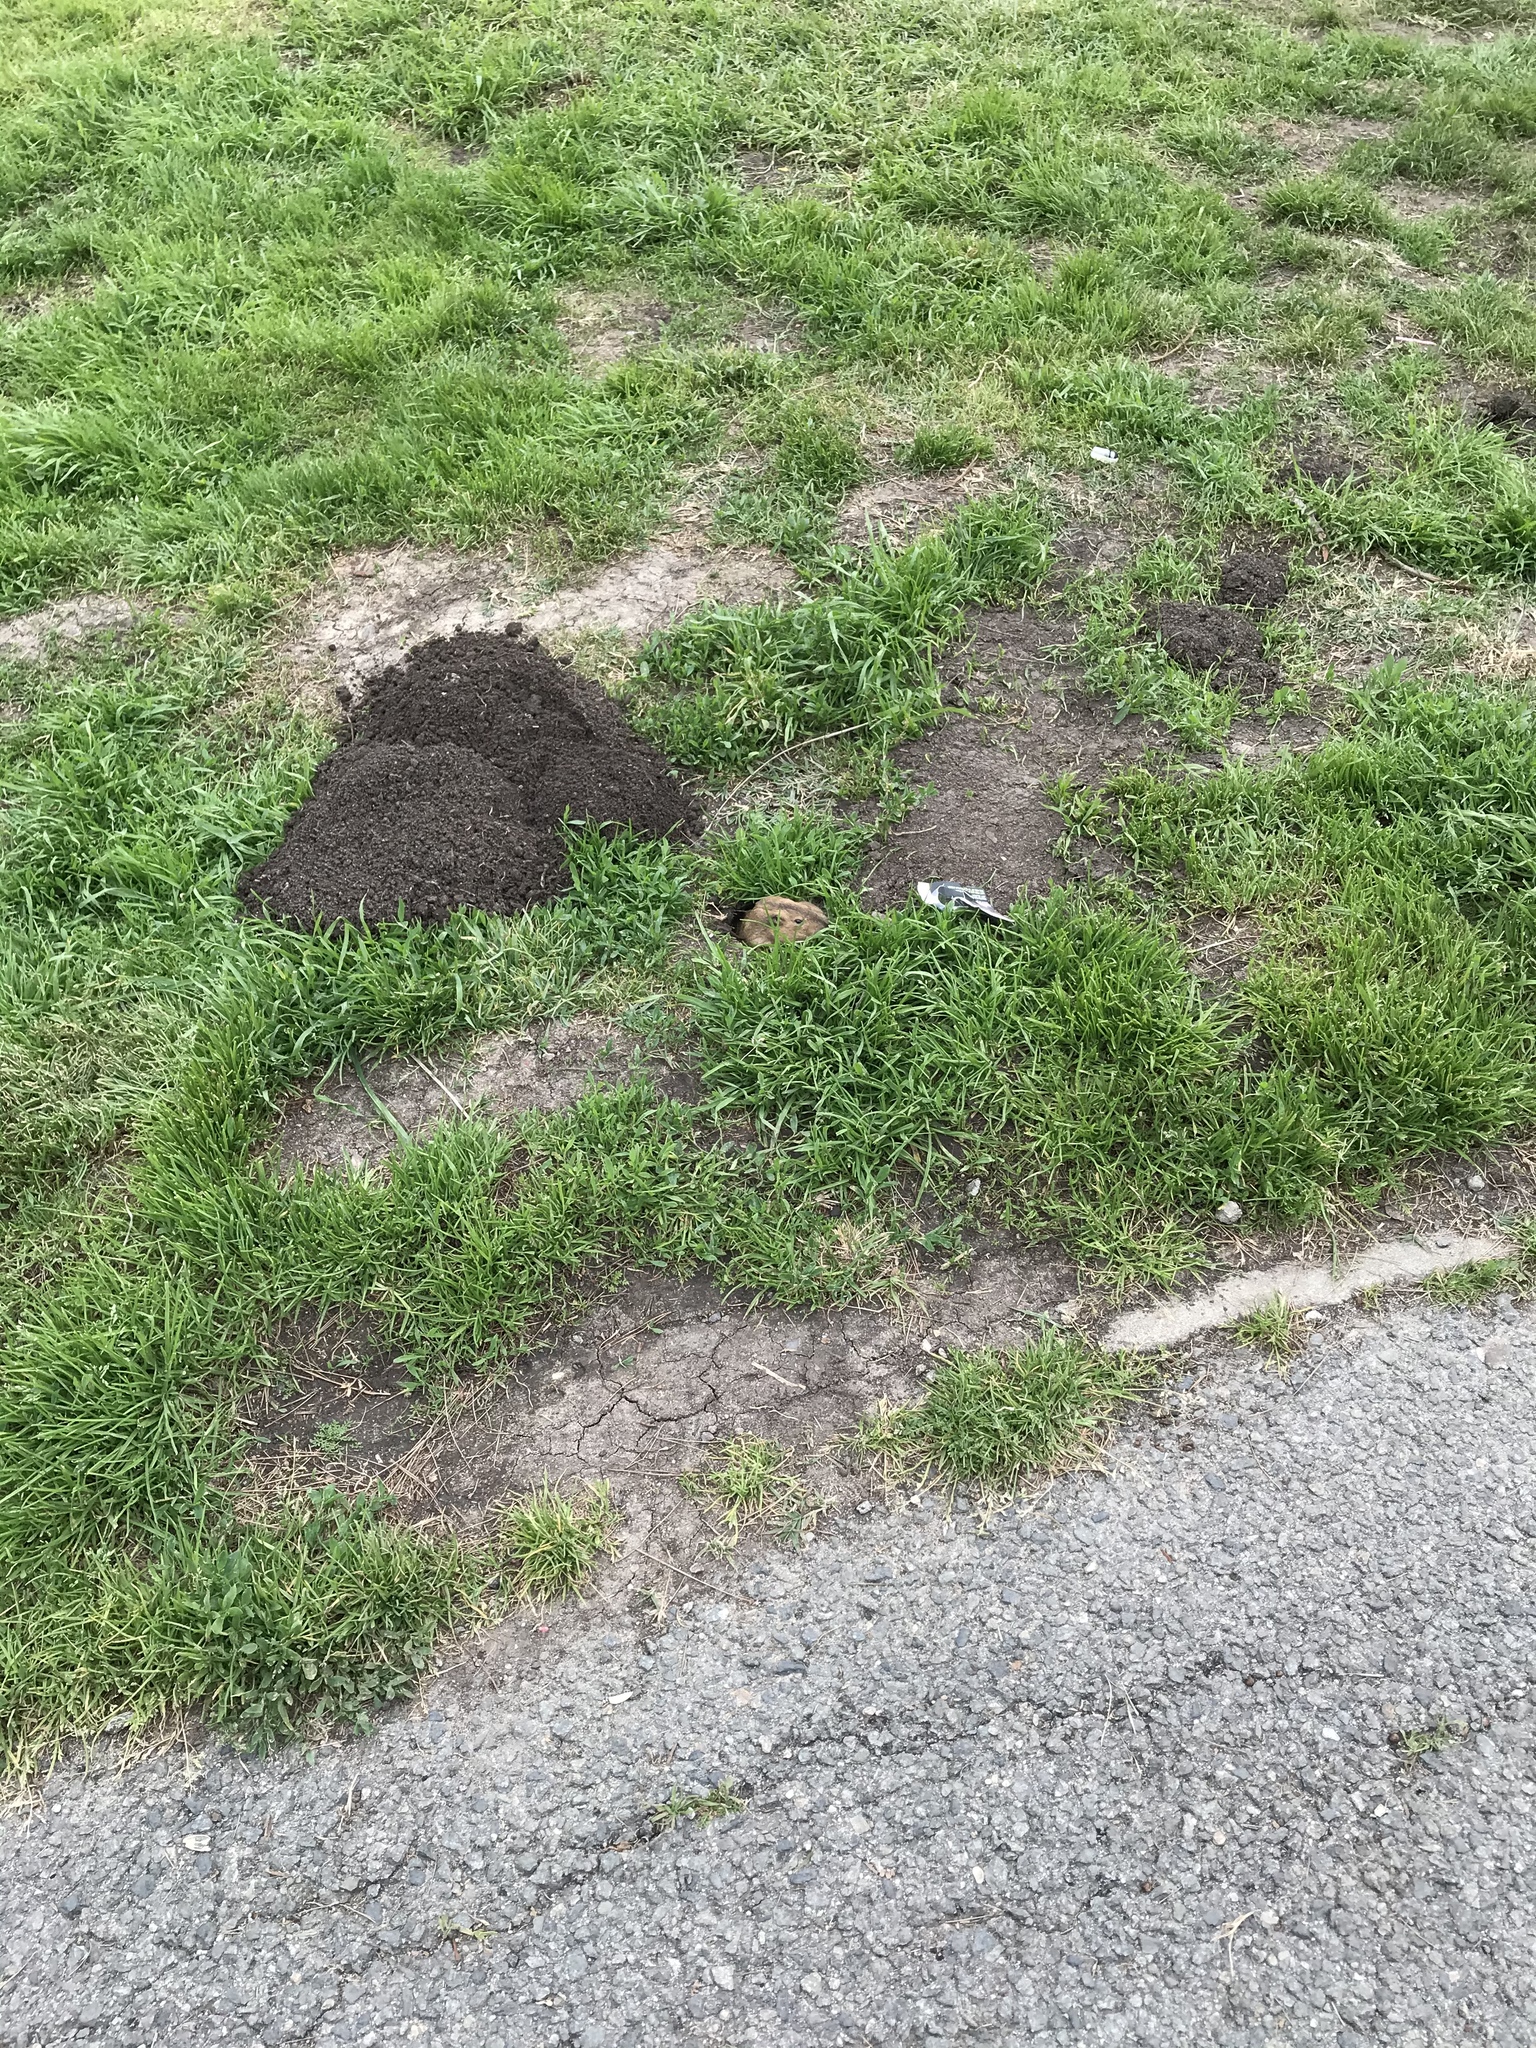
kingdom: Animalia
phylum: Chordata
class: Mammalia
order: Rodentia
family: Geomyidae
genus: Thomomys
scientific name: Thomomys bottae
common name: Botta's pocket gopher
